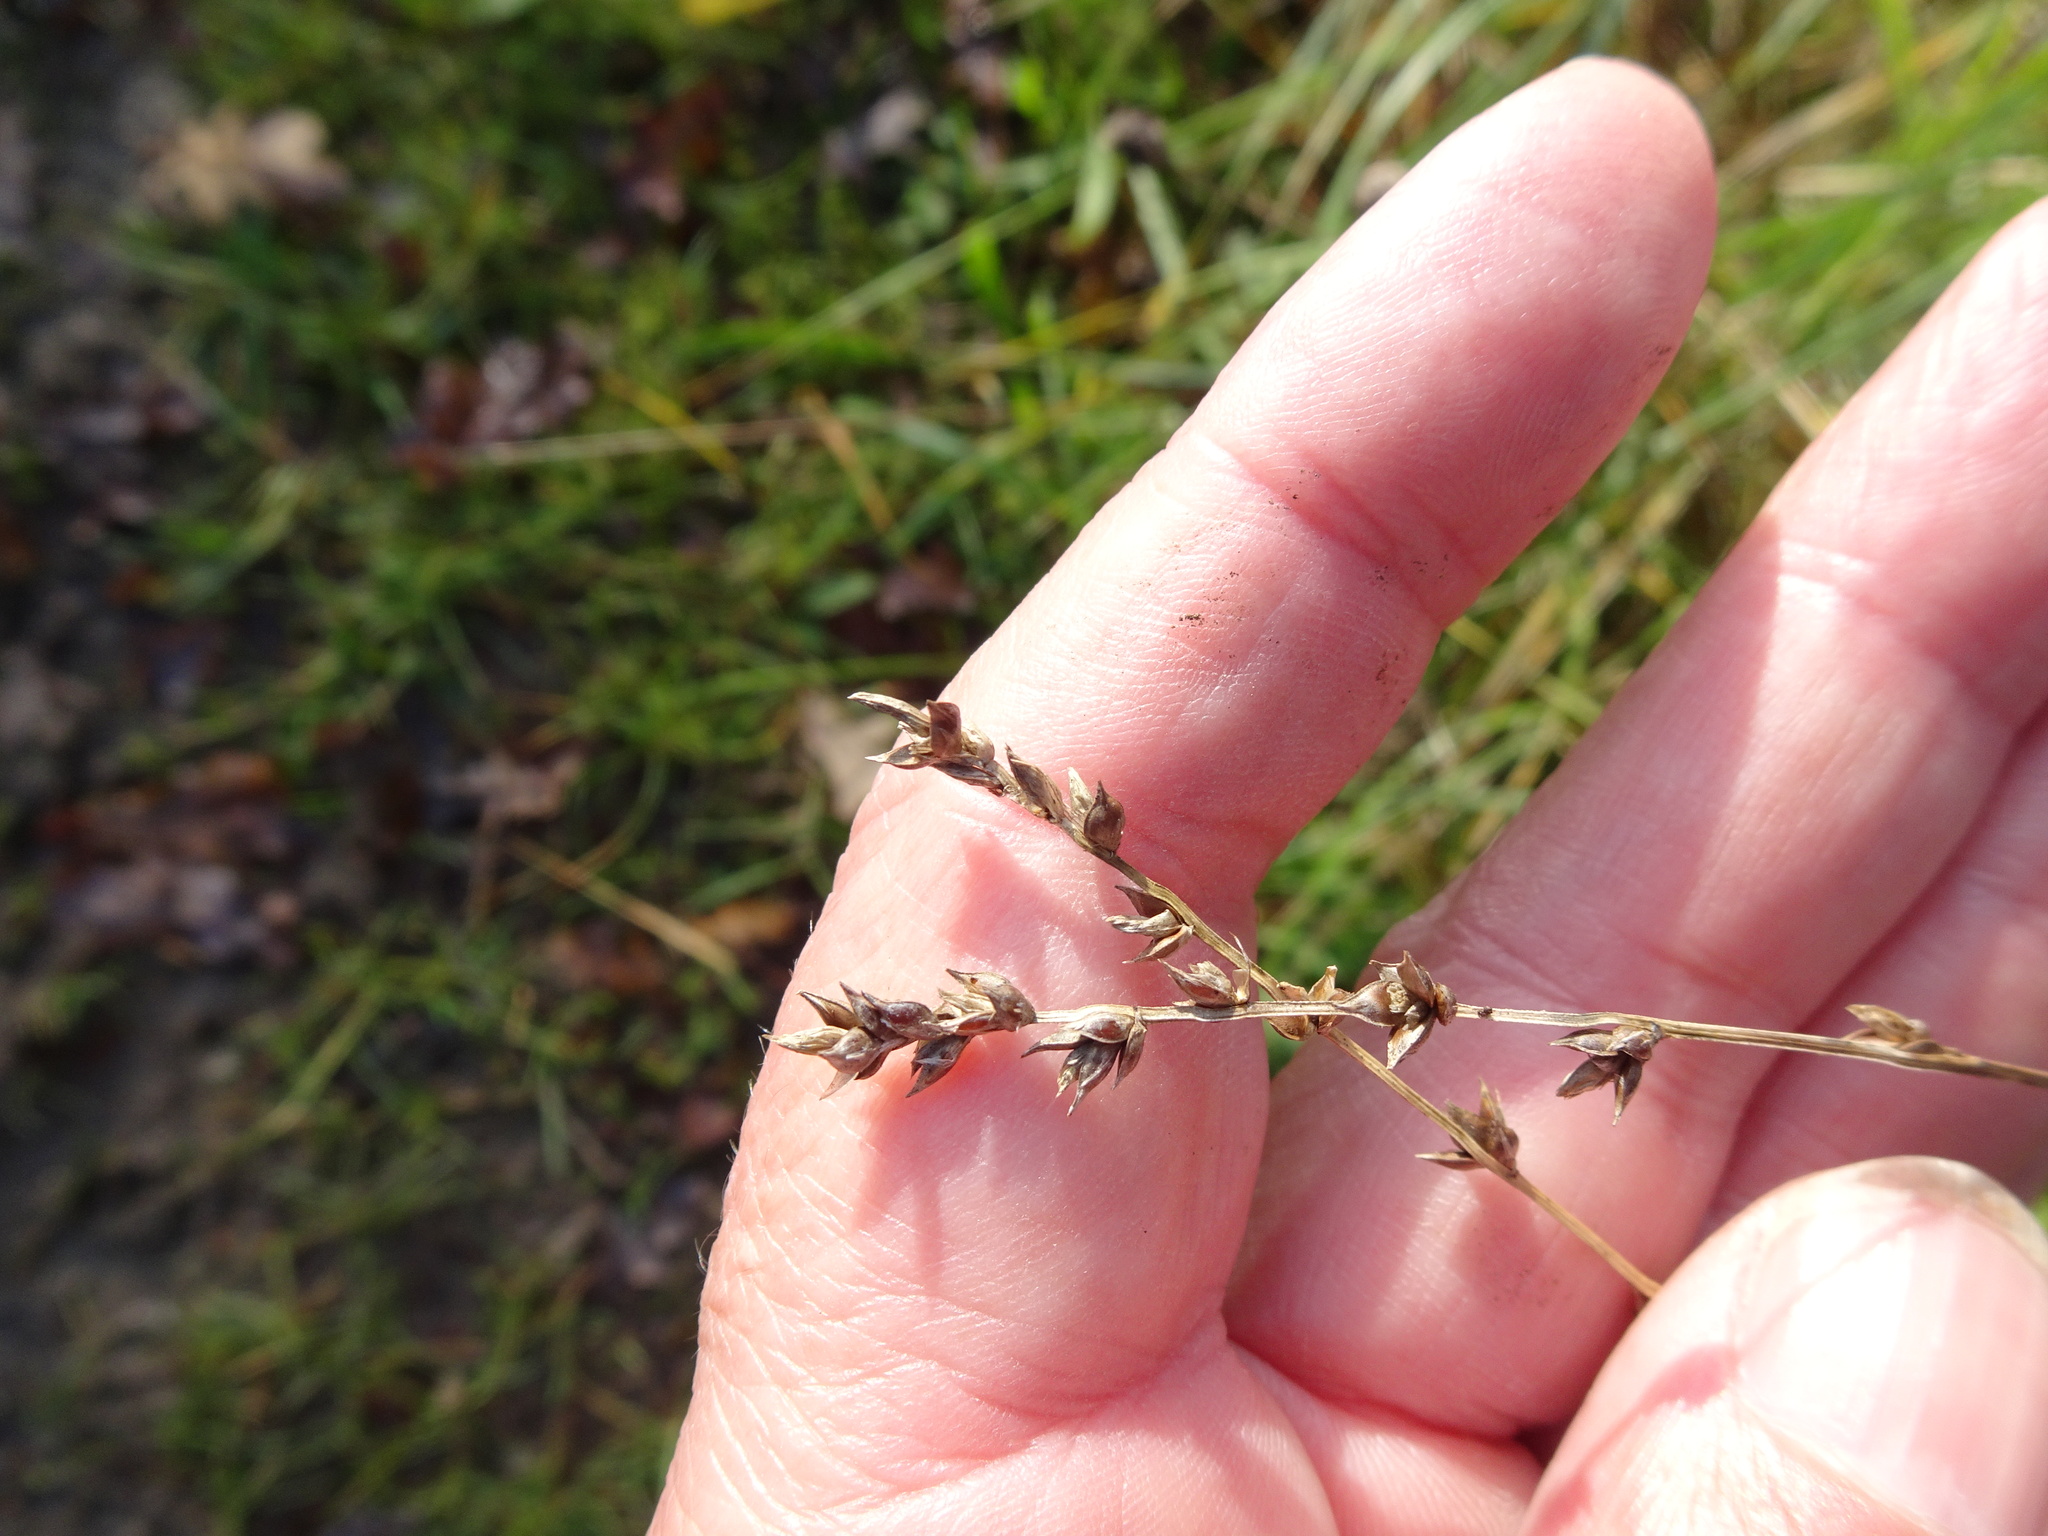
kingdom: Plantae
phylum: Tracheophyta
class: Liliopsida
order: Poales
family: Cyperaceae
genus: Carex
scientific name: Carex divulsa
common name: Grassland sedge
